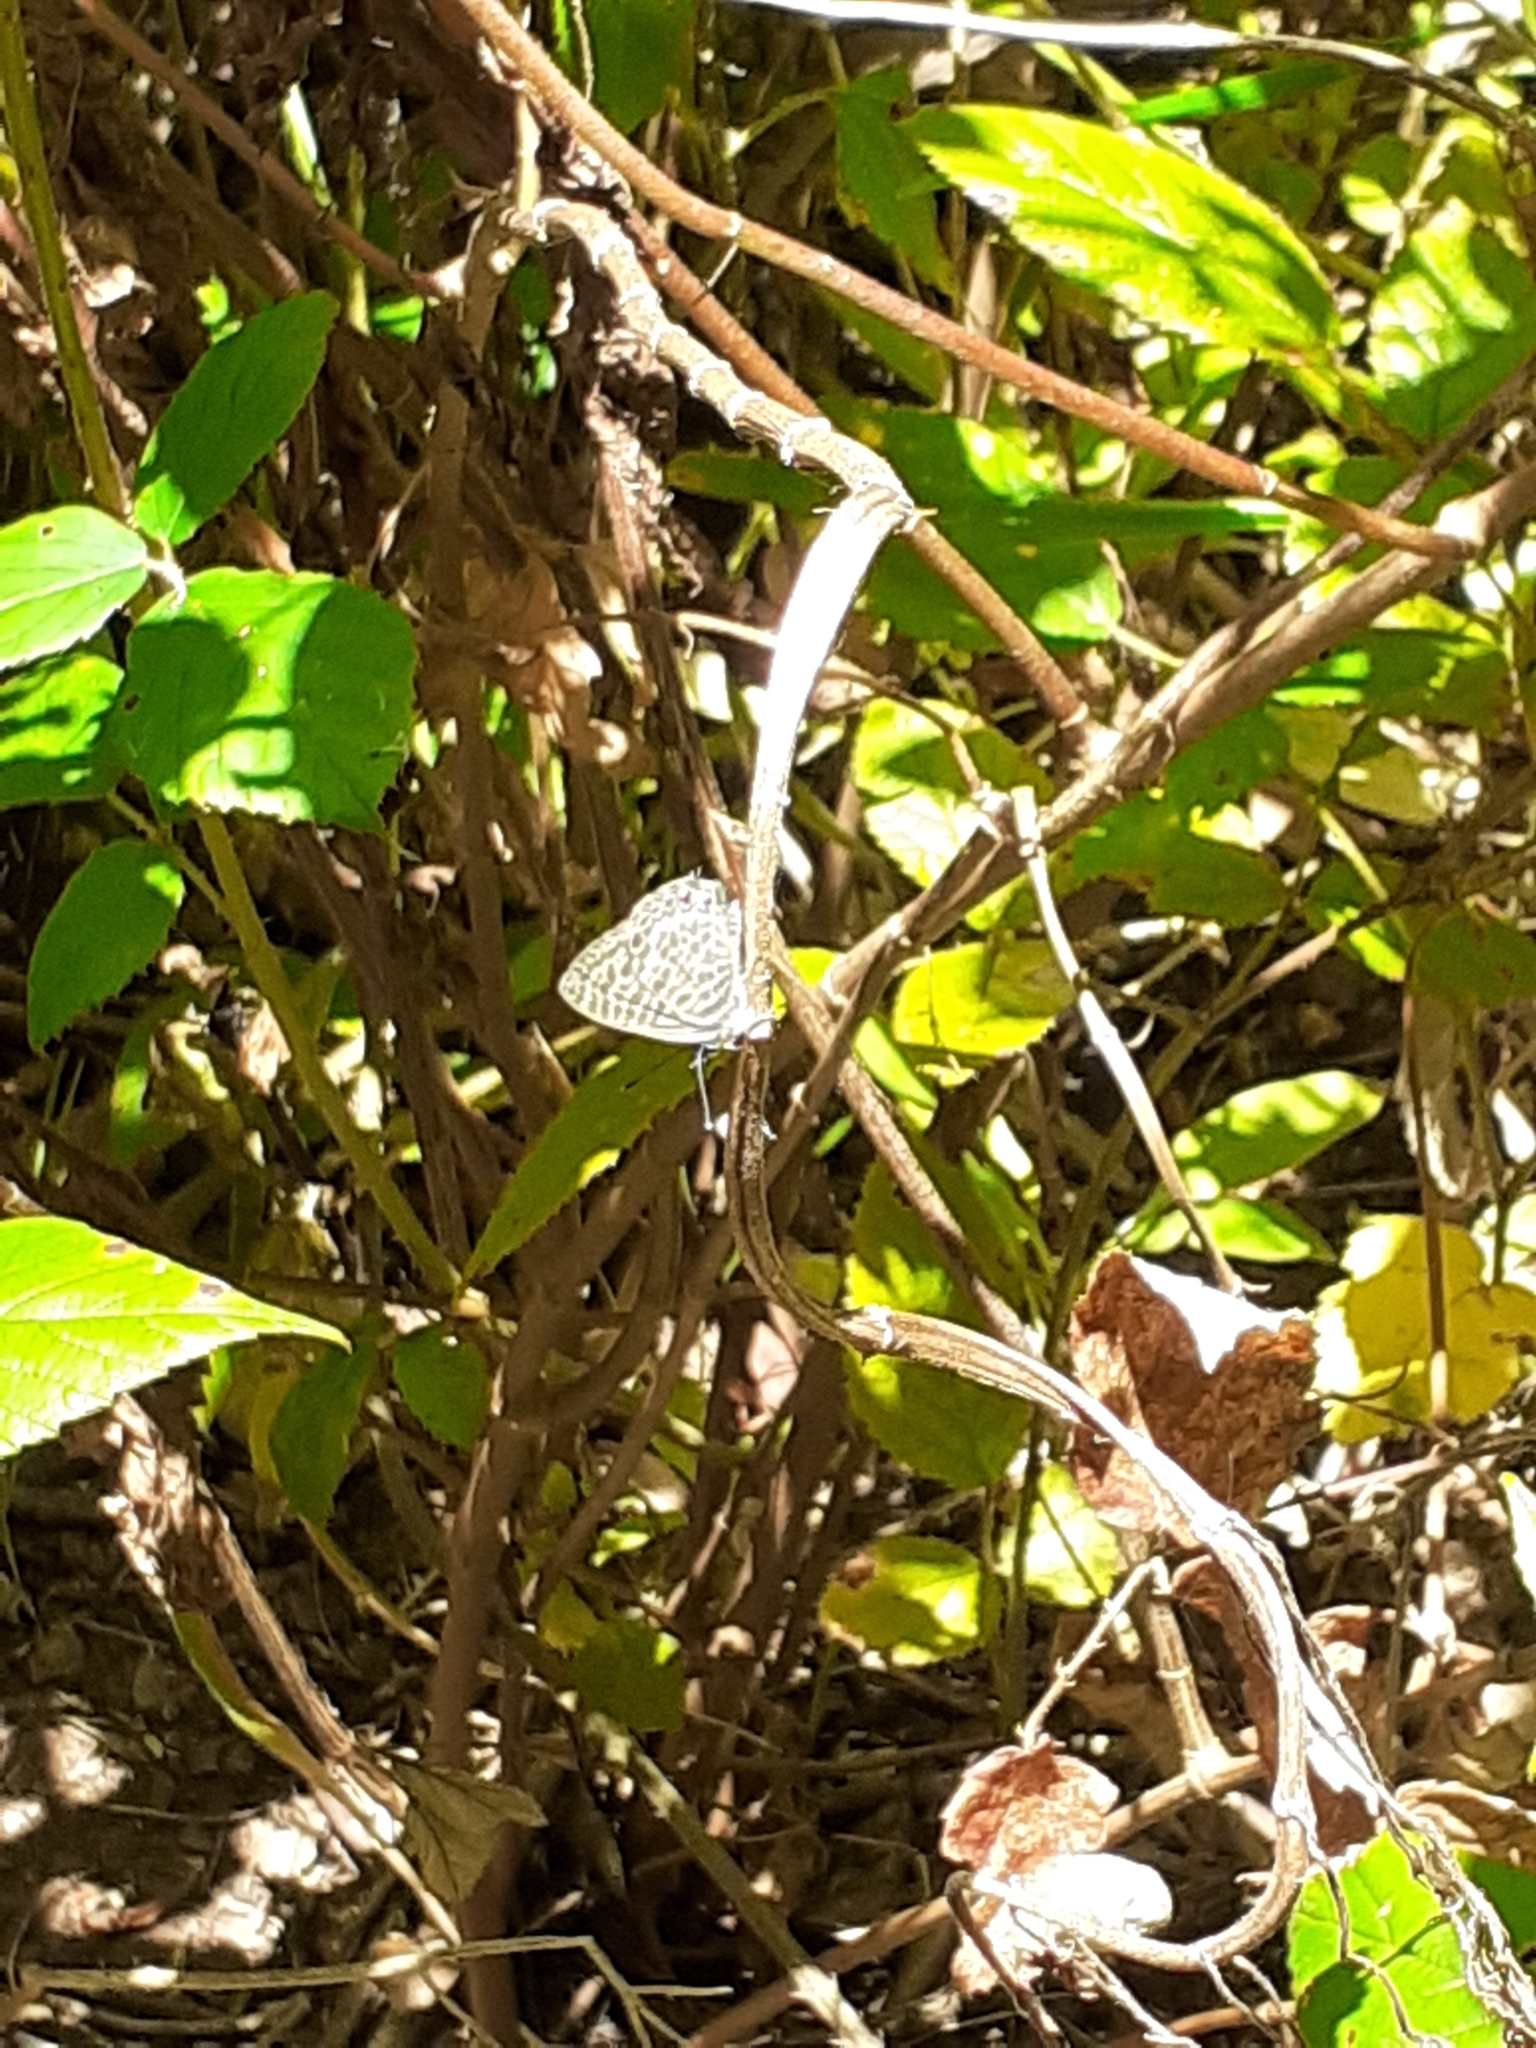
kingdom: Animalia
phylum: Arthropoda
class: Insecta
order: Lepidoptera
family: Lycaenidae
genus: Leptotes
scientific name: Leptotes pirithous
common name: Lang's short-tailed blue
